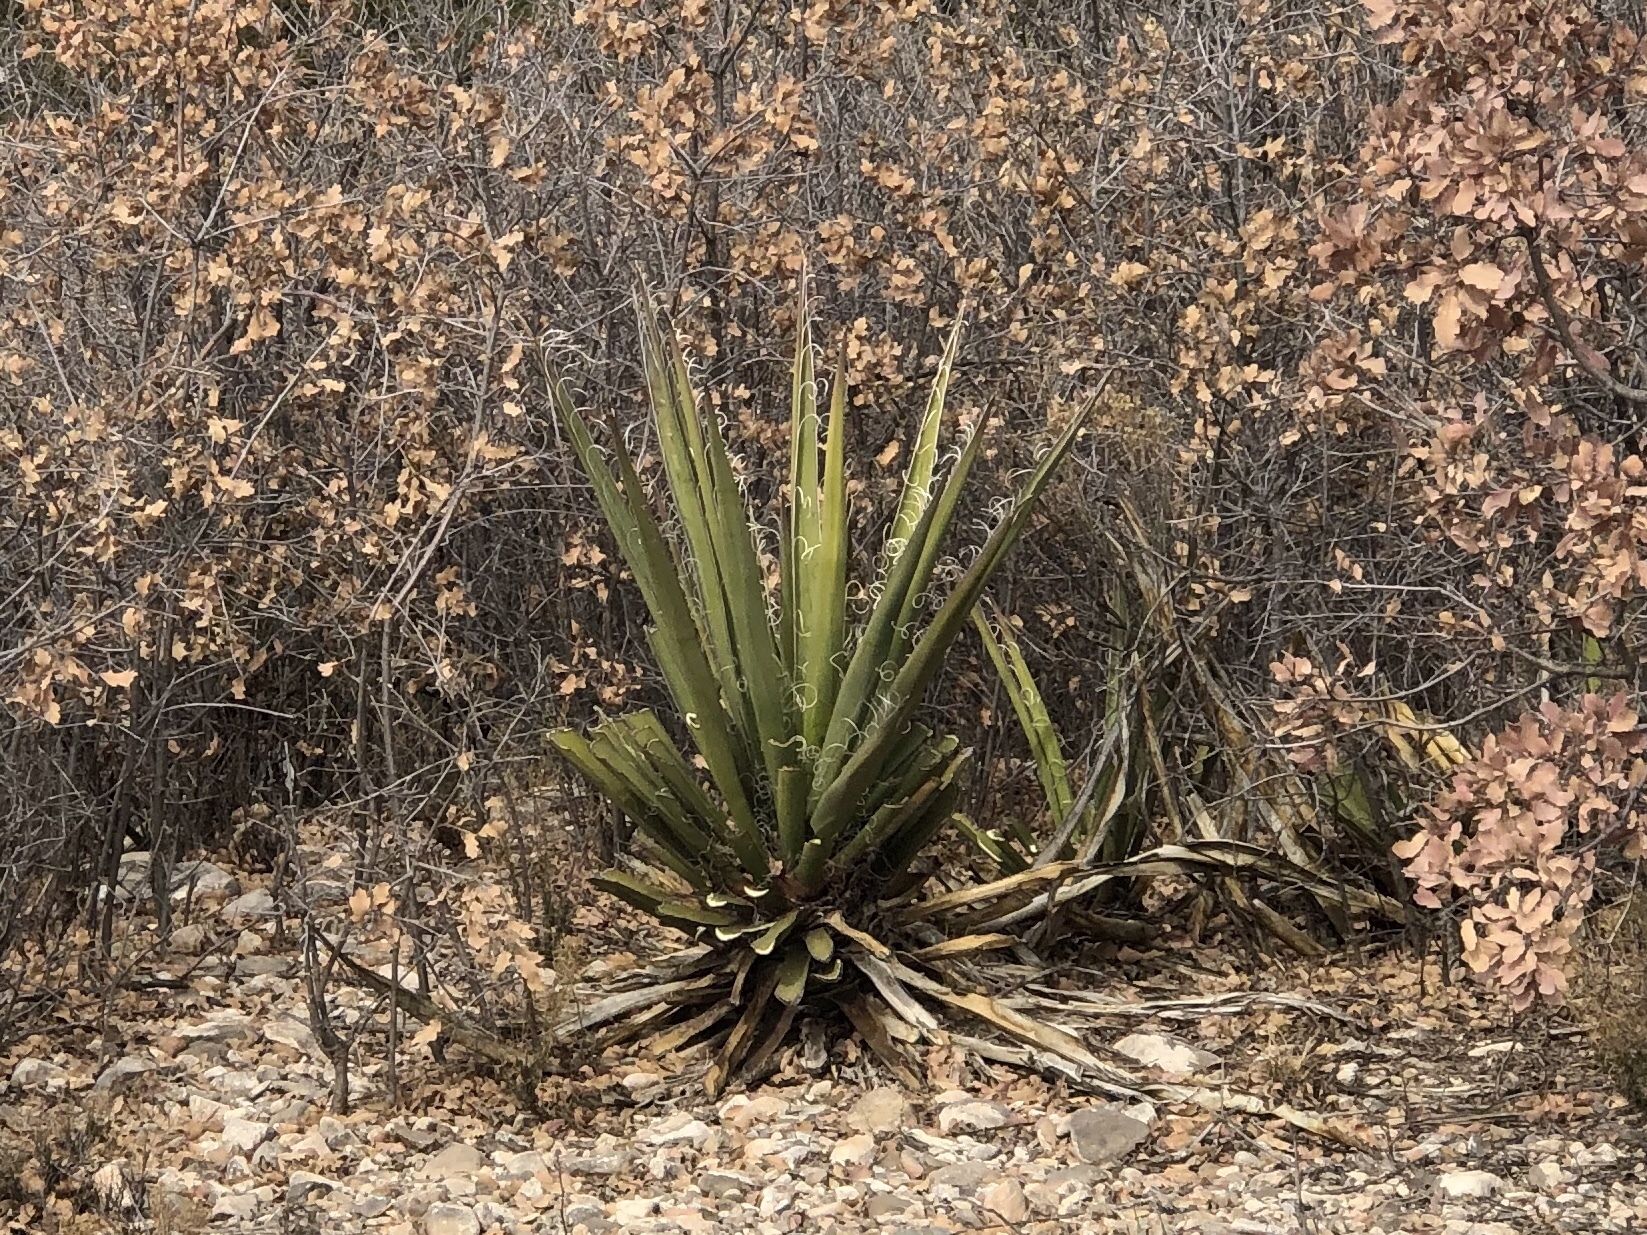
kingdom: Plantae
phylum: Tracheophyta
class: Liliopsida
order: Asparagales
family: Asparagaceae
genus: Yucca
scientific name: Yucca baccata
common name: Banana yucca
